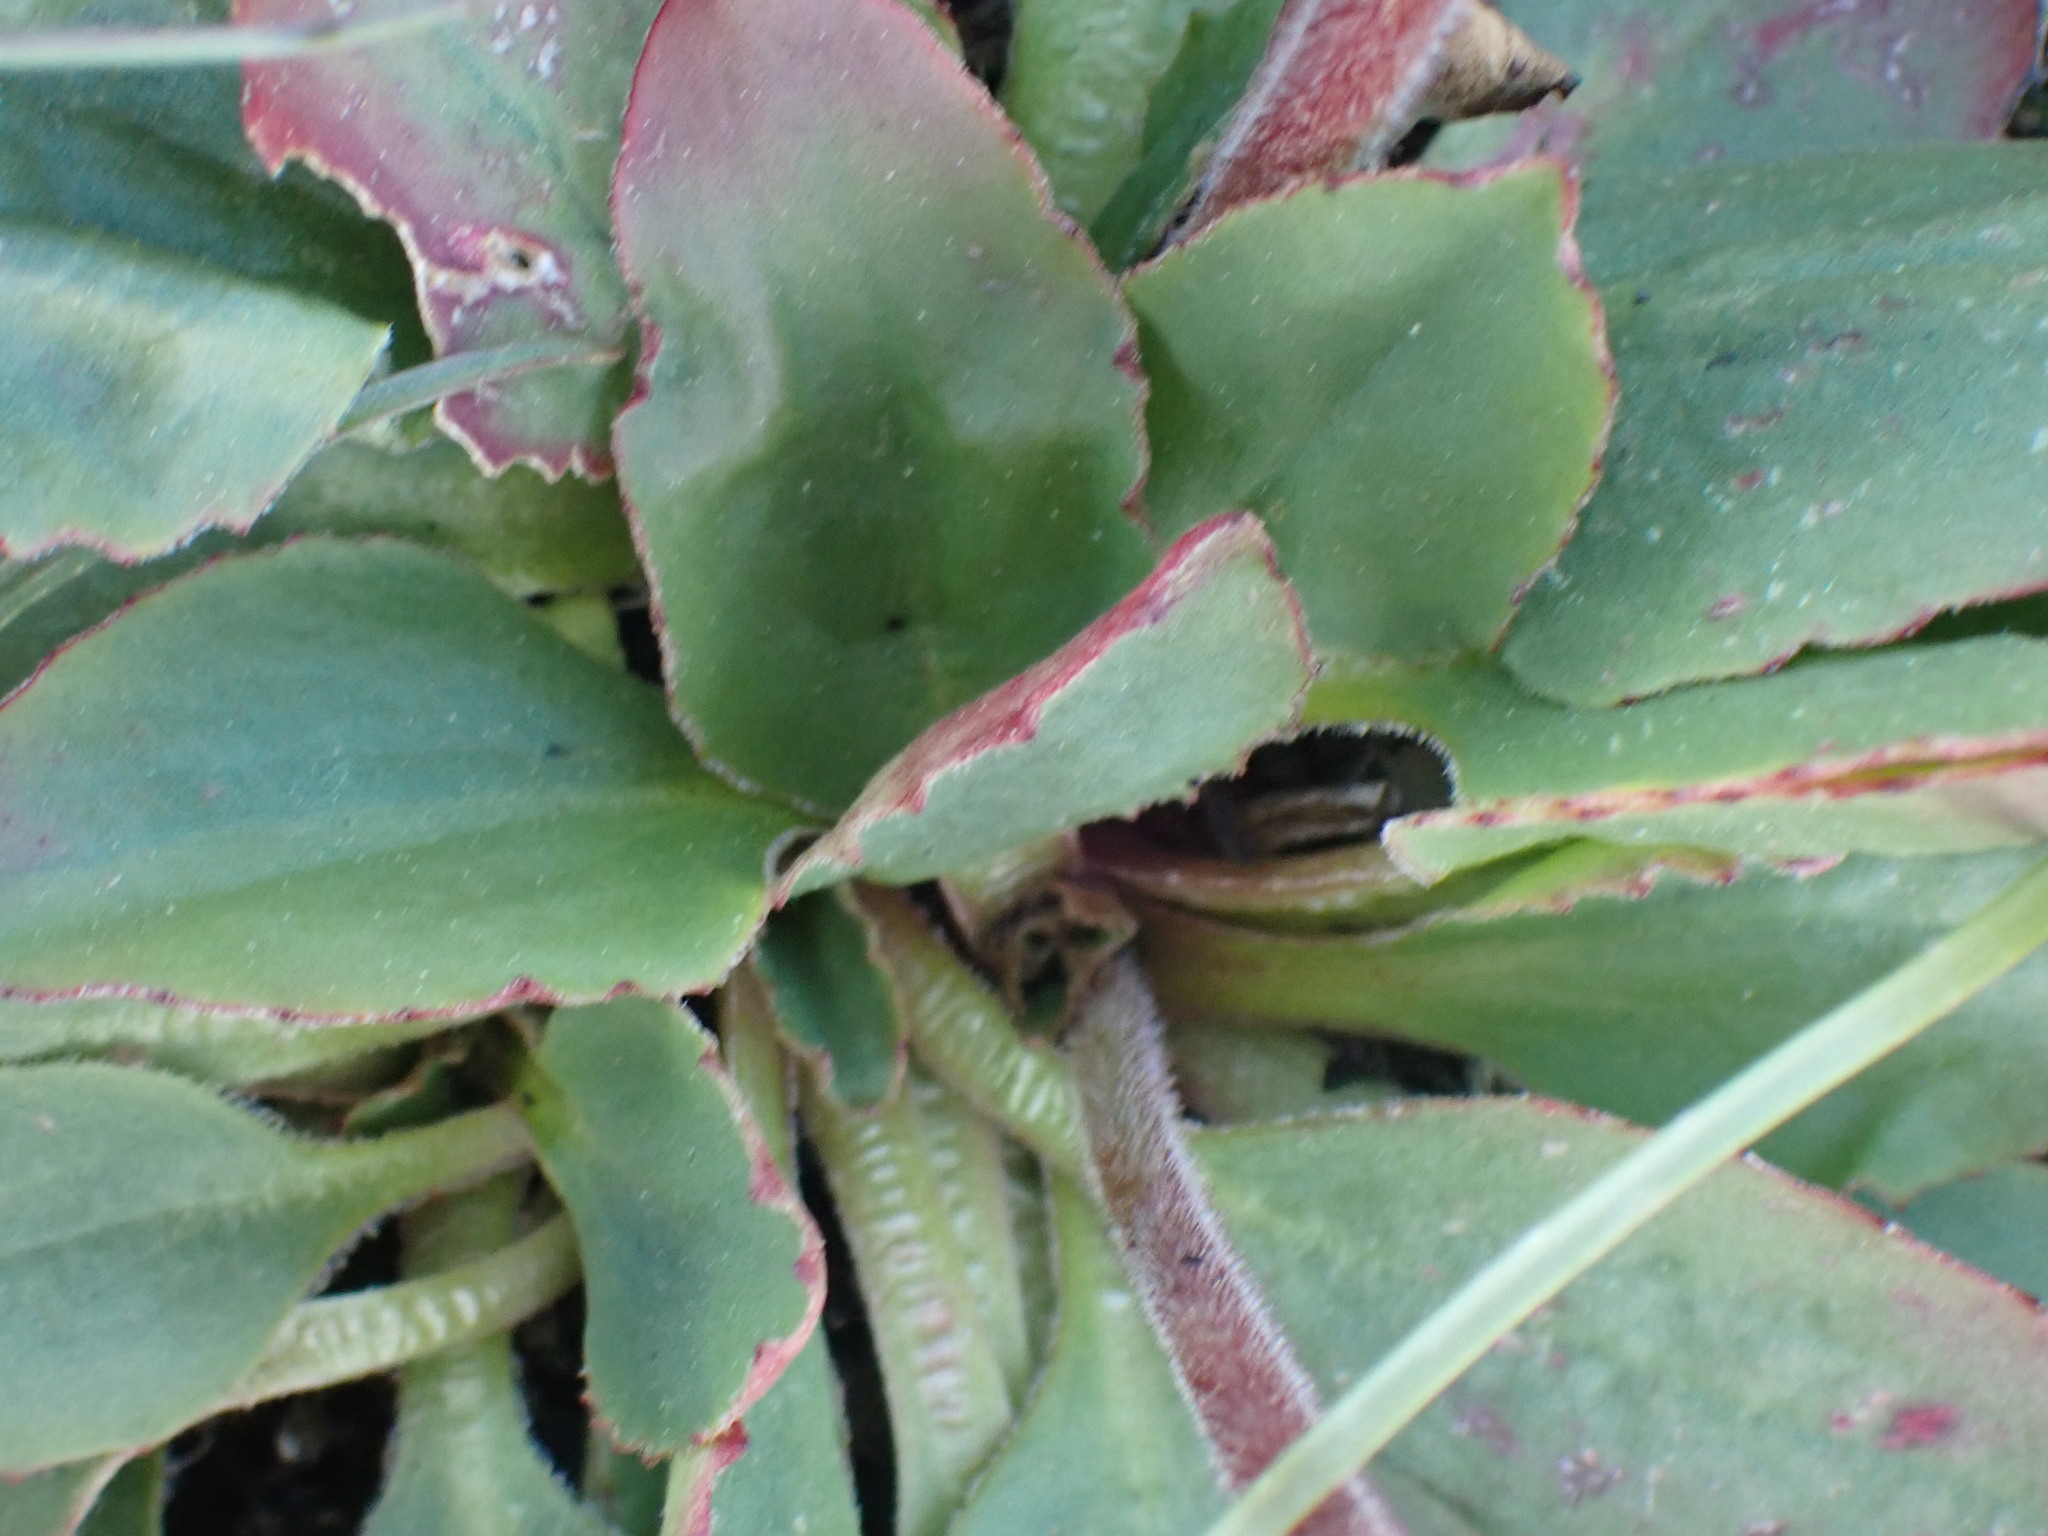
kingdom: Plantae
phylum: Tracheophyta
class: Magnoliopsida
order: Saxifragales
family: Saxifragaceae
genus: Micranthes
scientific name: Micranthes integrifolia
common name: Wholeleaf saxifrage
